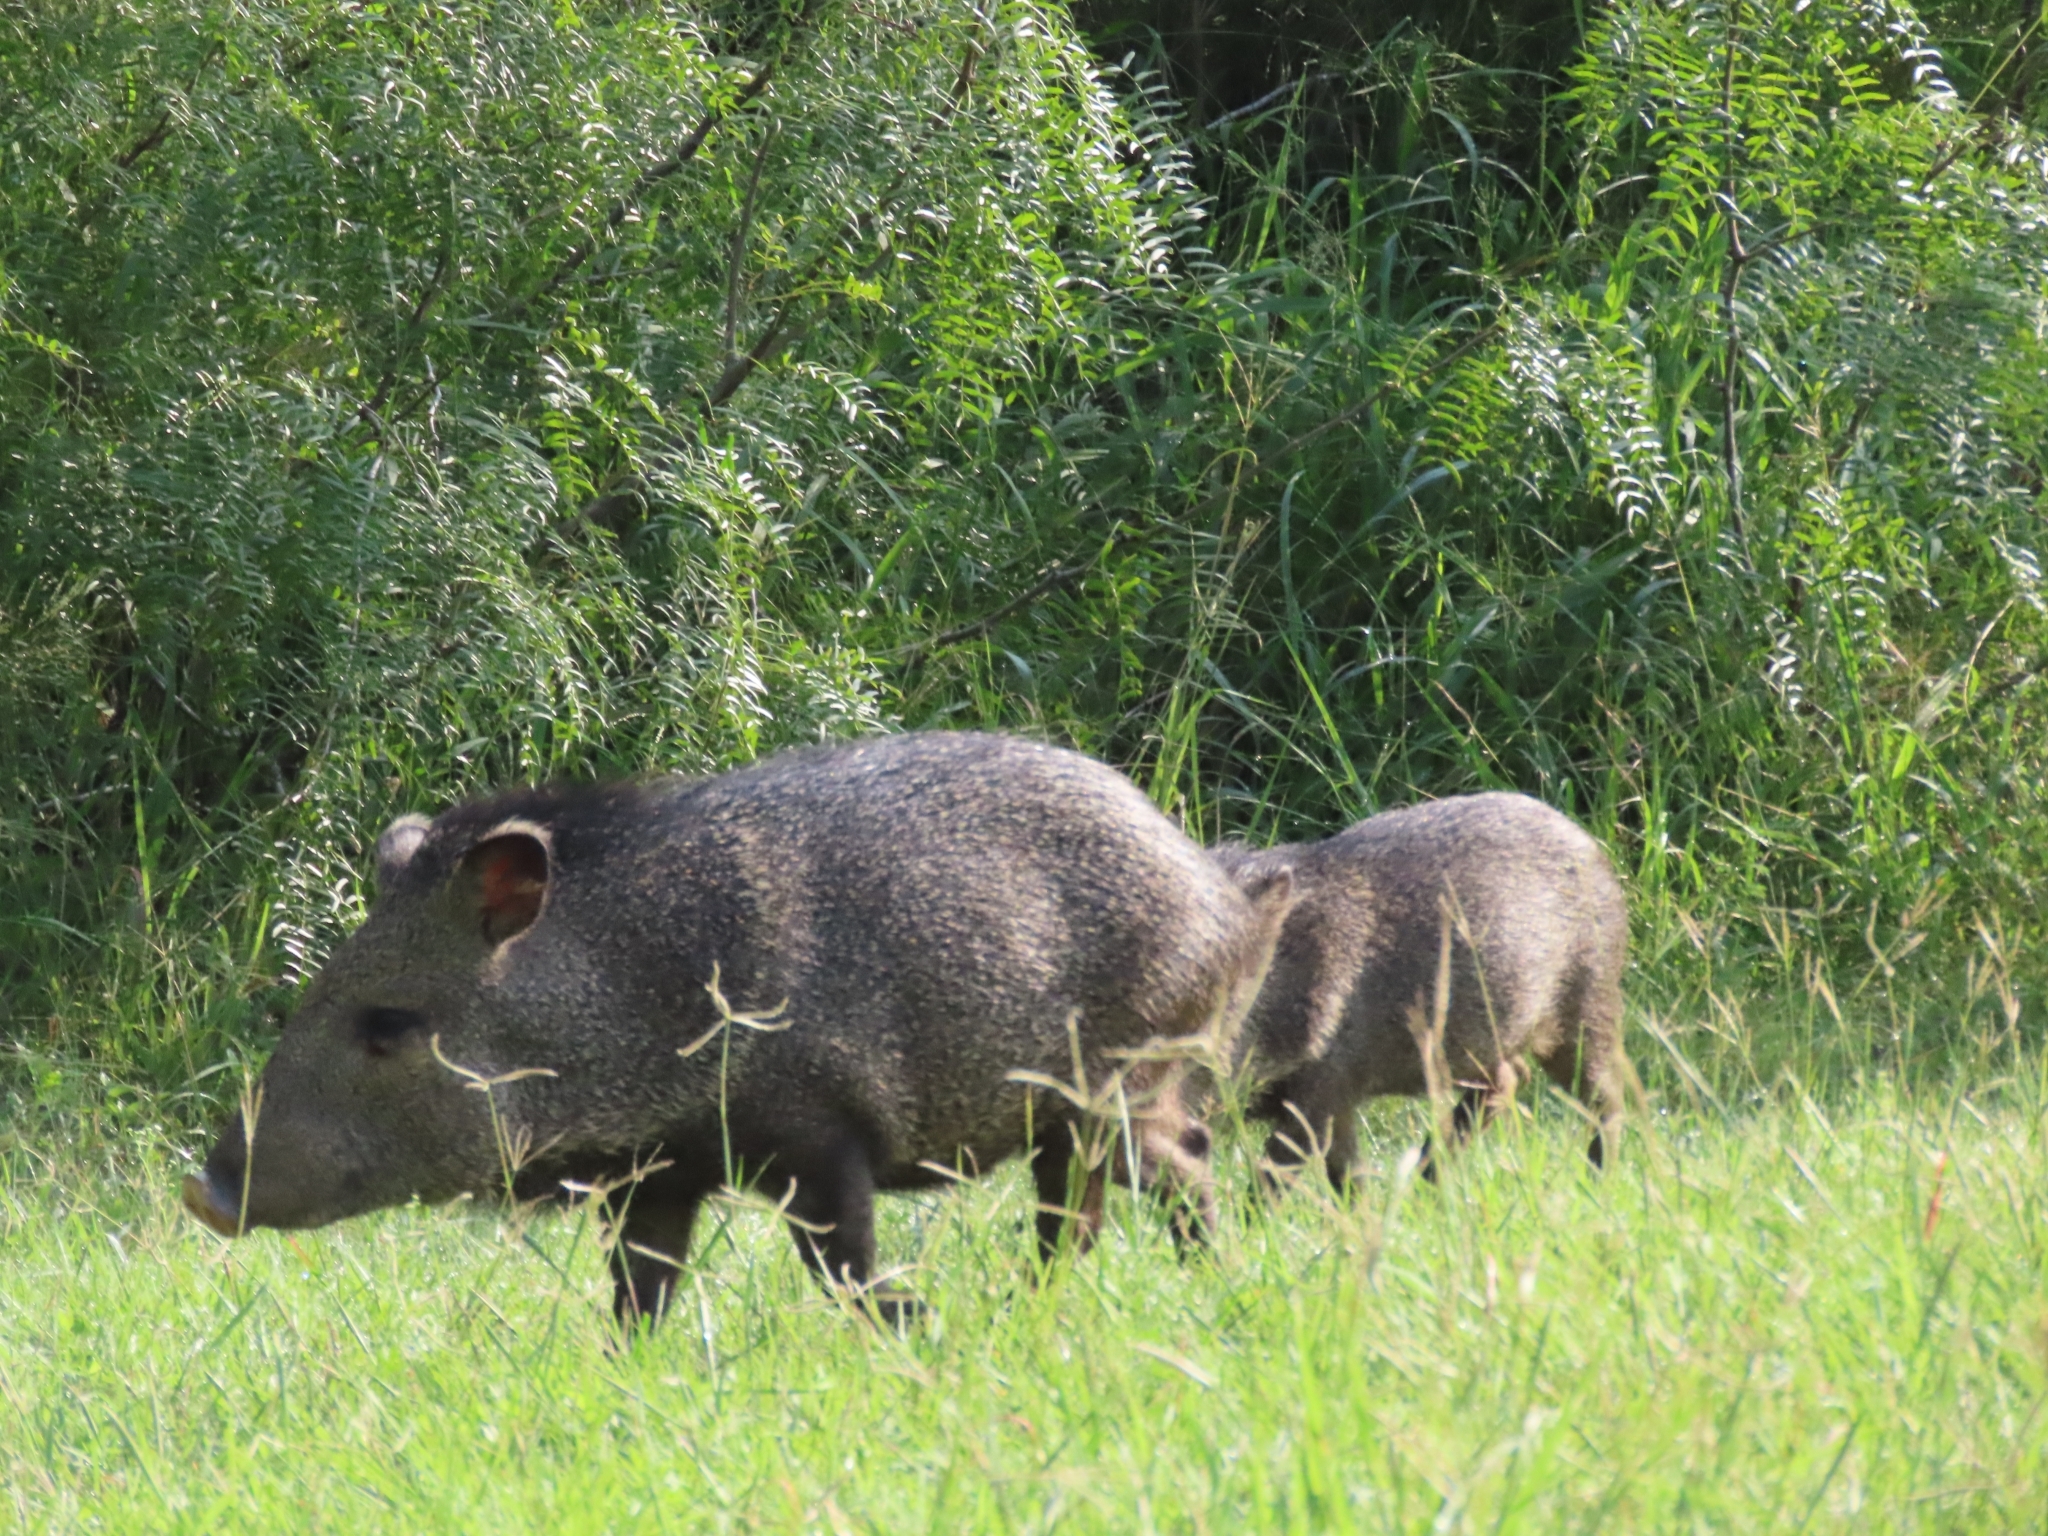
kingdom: Animalia
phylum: Chordata
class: Mammalia
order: Artiodactyla
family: Tayassuidae
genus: Pecari
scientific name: Pecari tajacu
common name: Collared peccary
